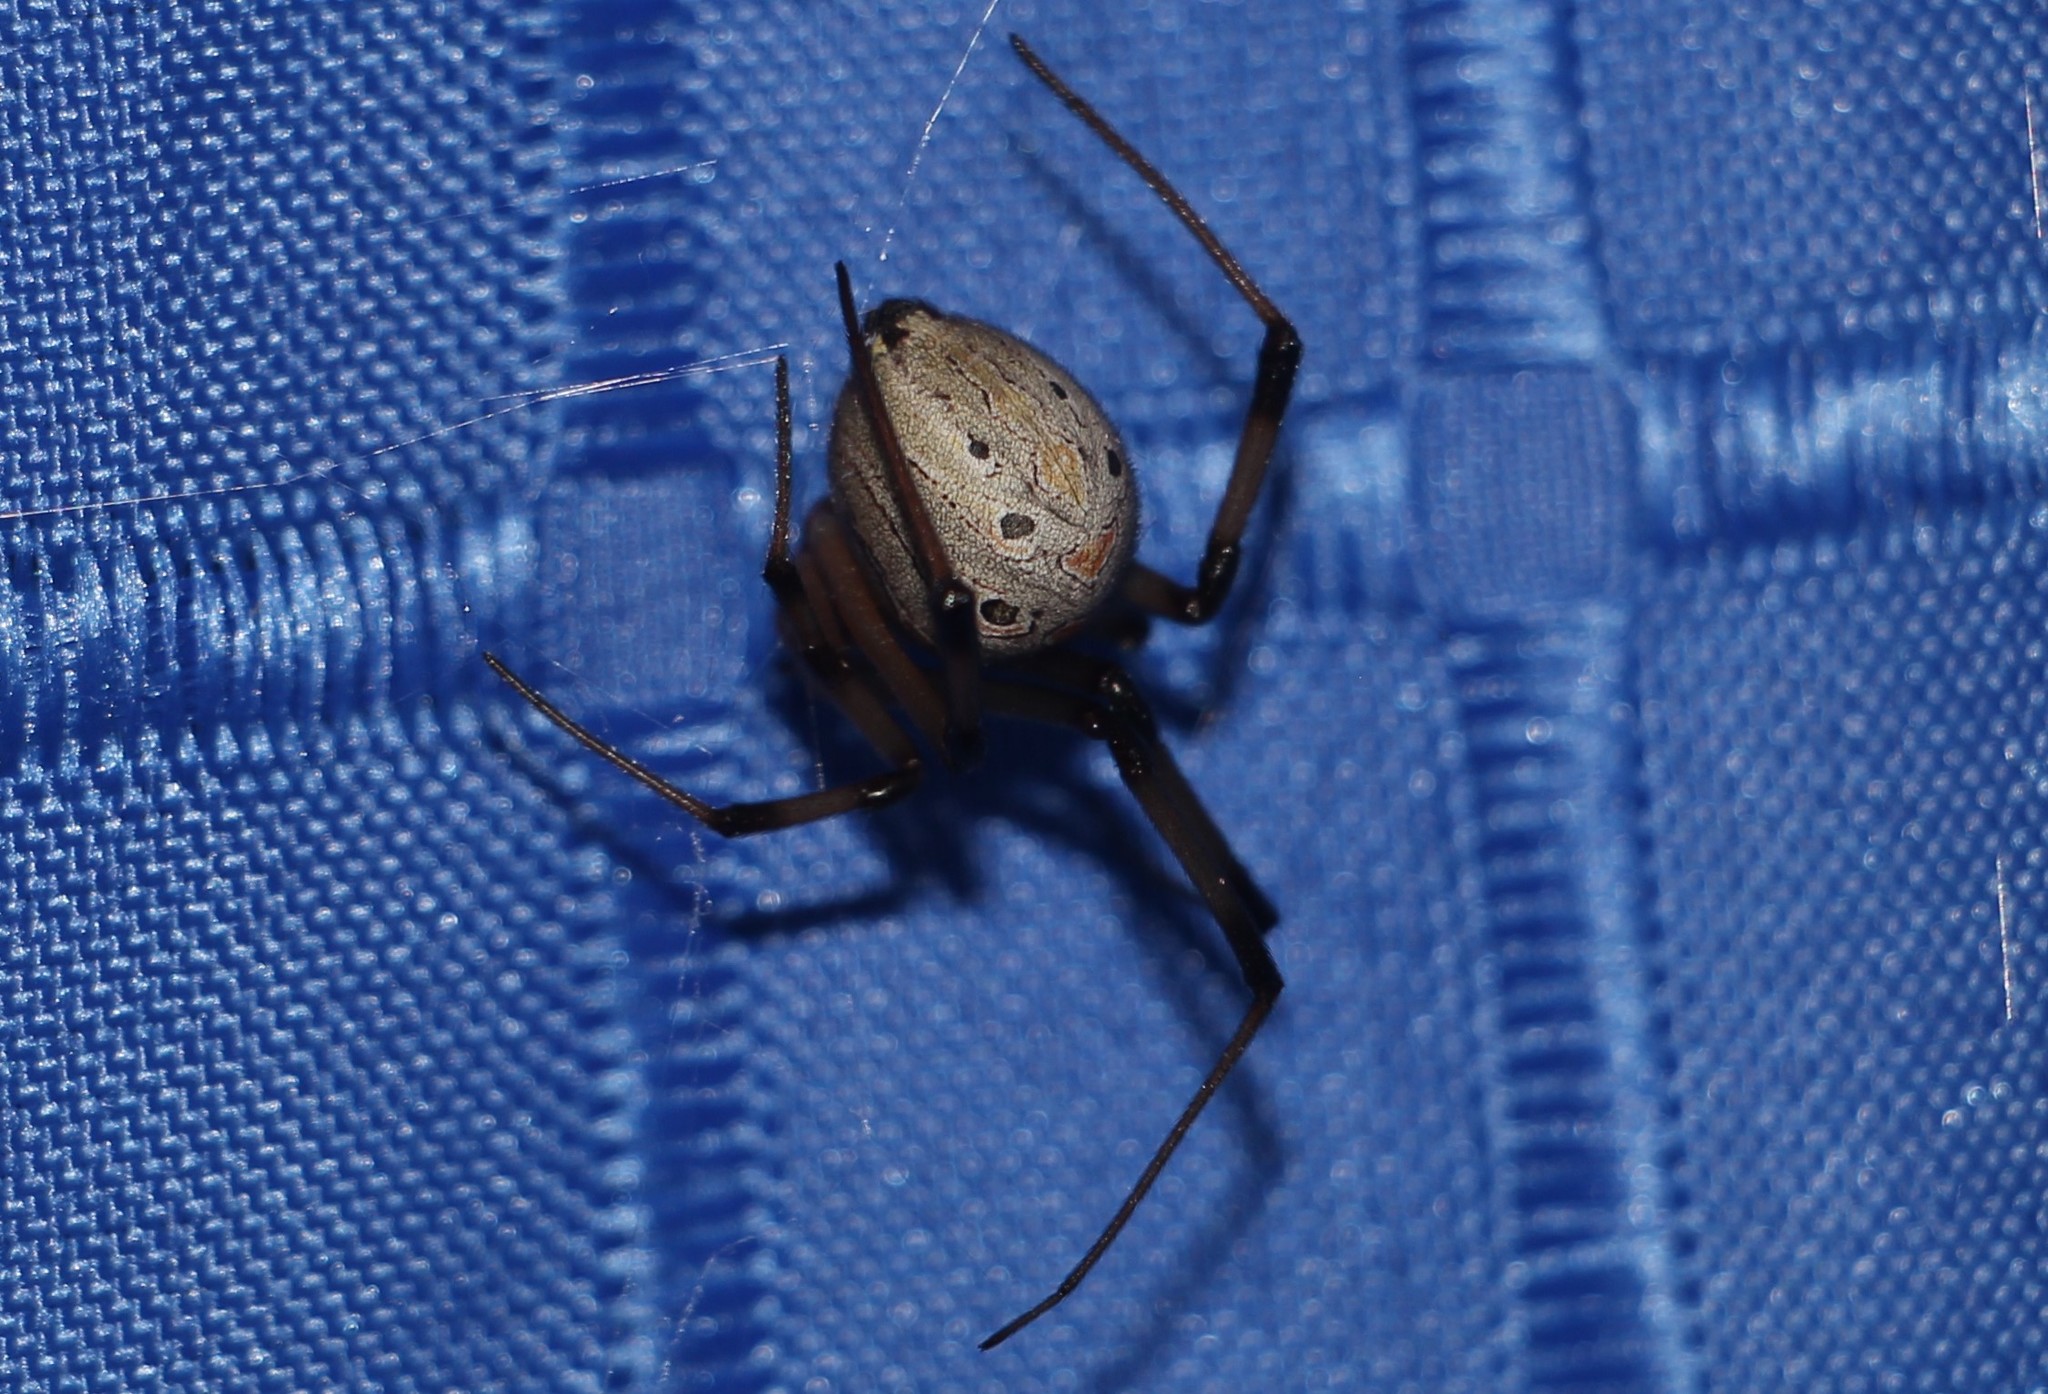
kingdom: Animalia
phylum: Arthropoda
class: Arachnida
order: Araneae
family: Theridiidae
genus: Latrodectus
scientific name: Latrodectus geometricus
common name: Brown widow spider
